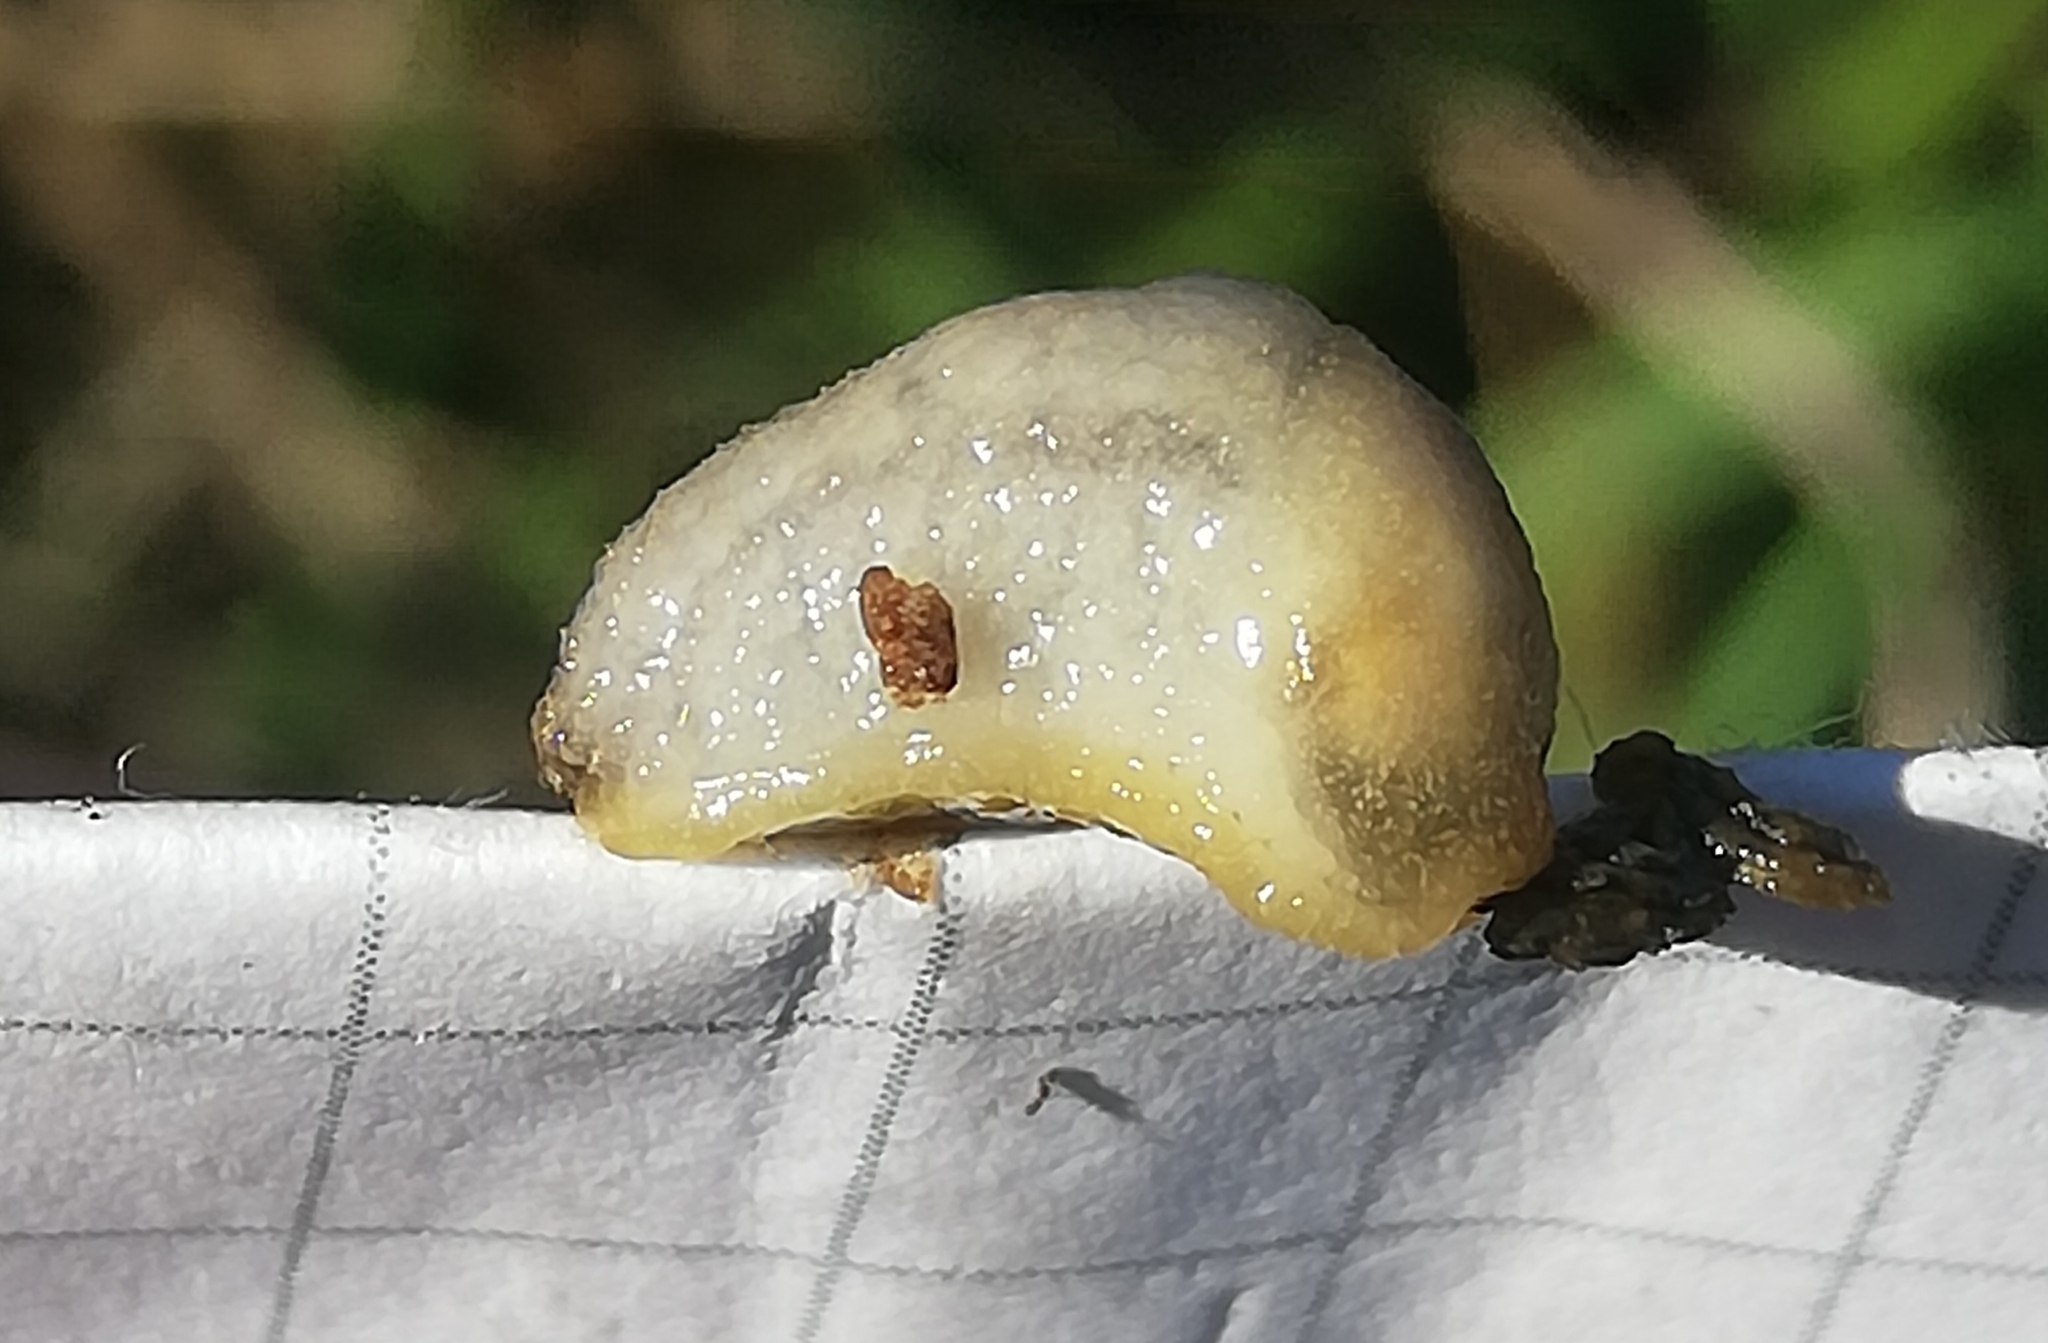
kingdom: Animalia
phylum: Mollusca
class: Gastropoda
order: Stylommatophora
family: Arionidae
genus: Arion
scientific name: Arion intermedius
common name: Hedgehog slug
